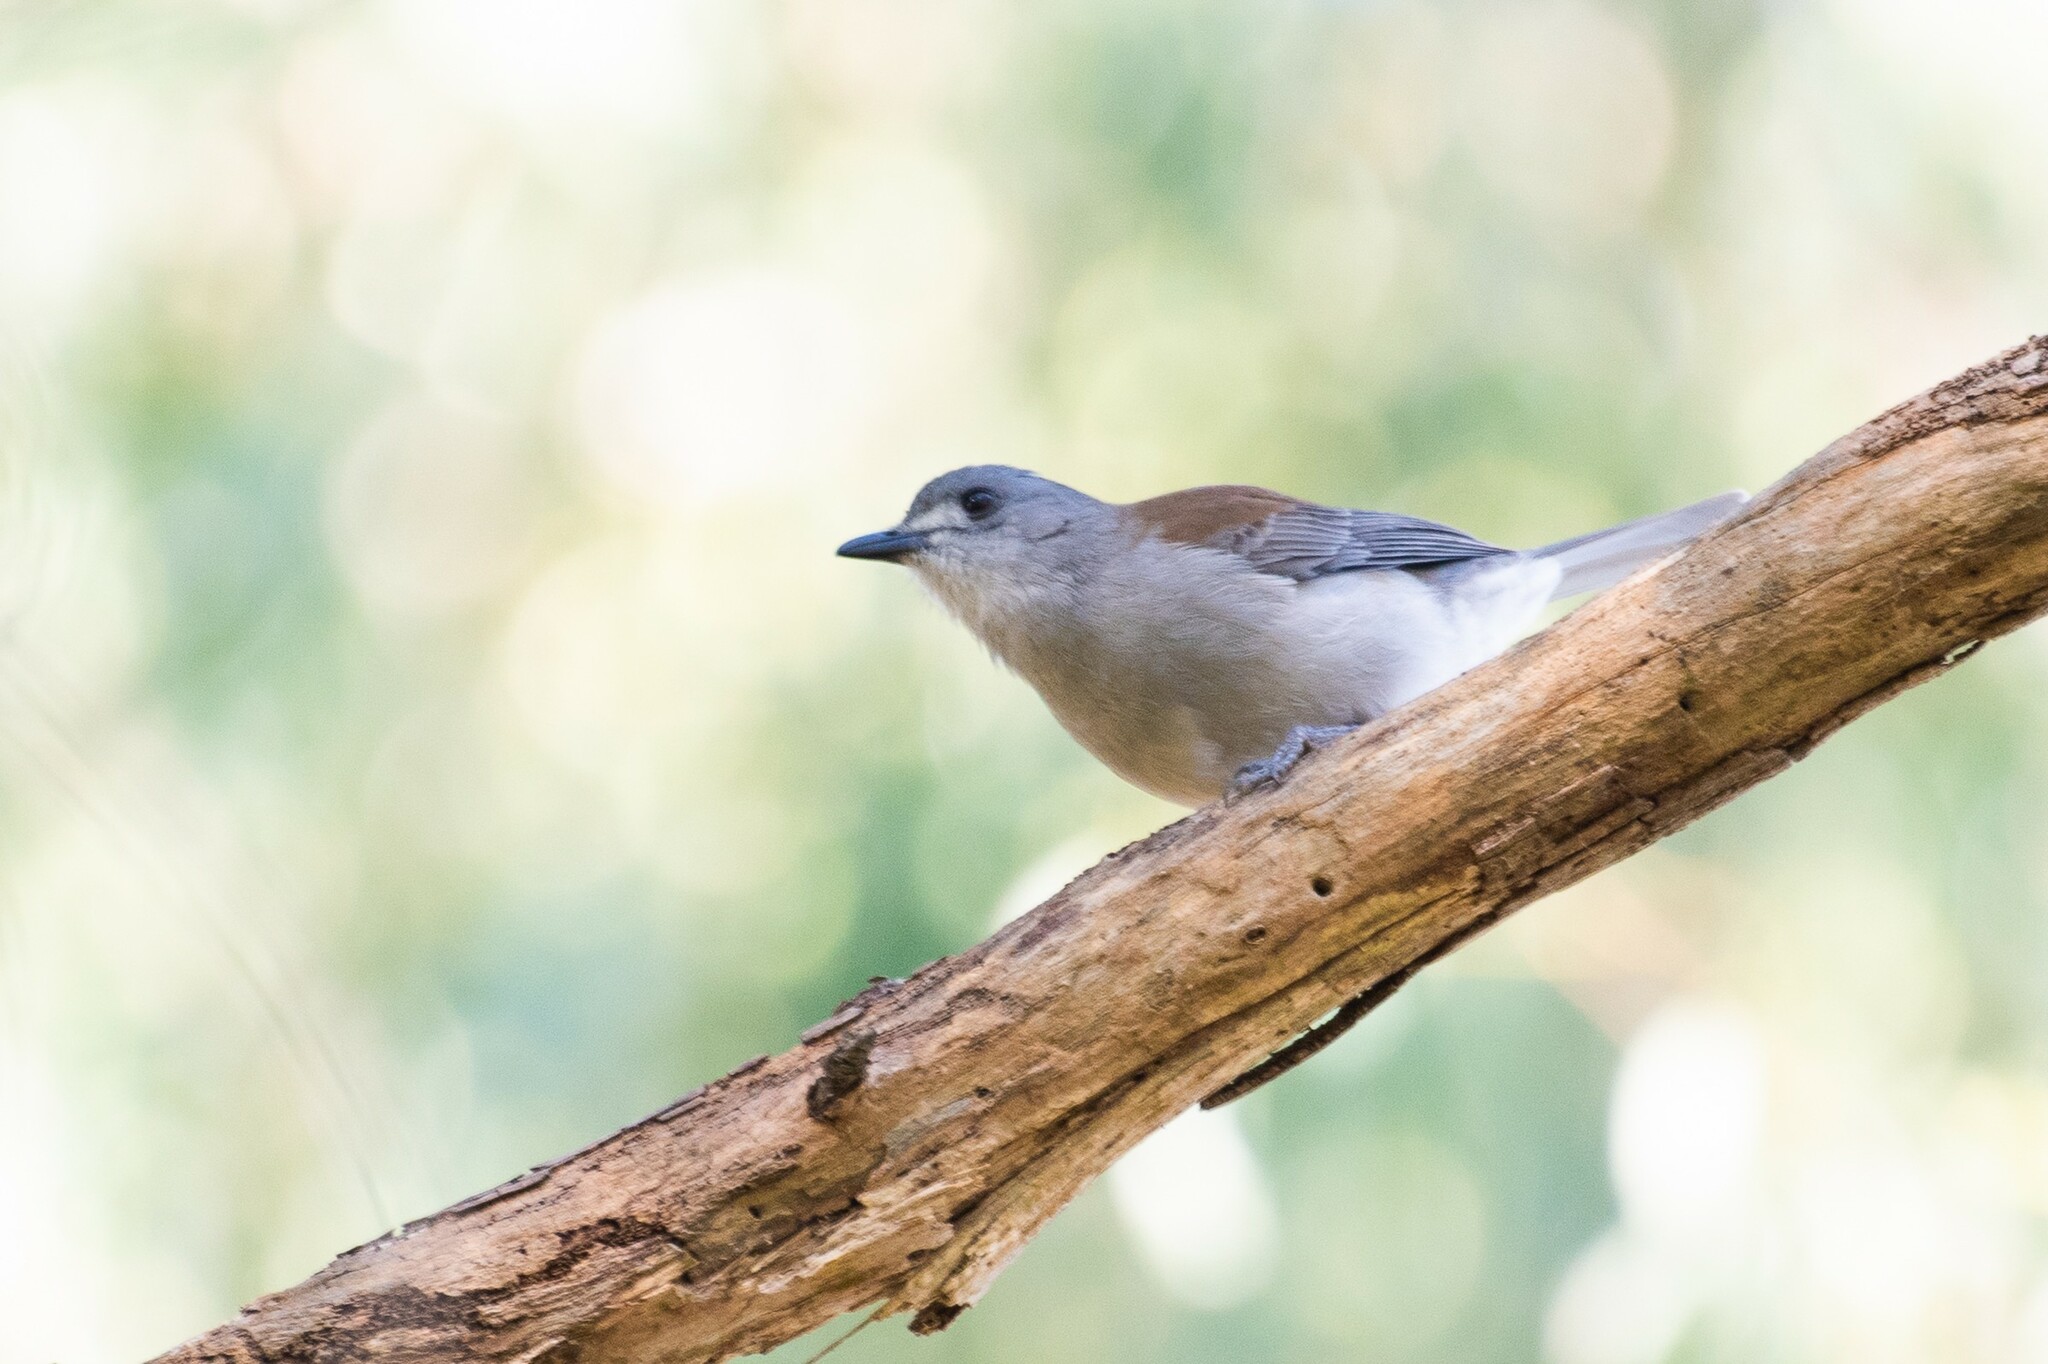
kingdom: Animalia
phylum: Chordata
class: Aves
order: Passeriformes
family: Pachycephalidae
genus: Colluricincla
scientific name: Colluricincla harmonica
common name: Grey shrikethrush
